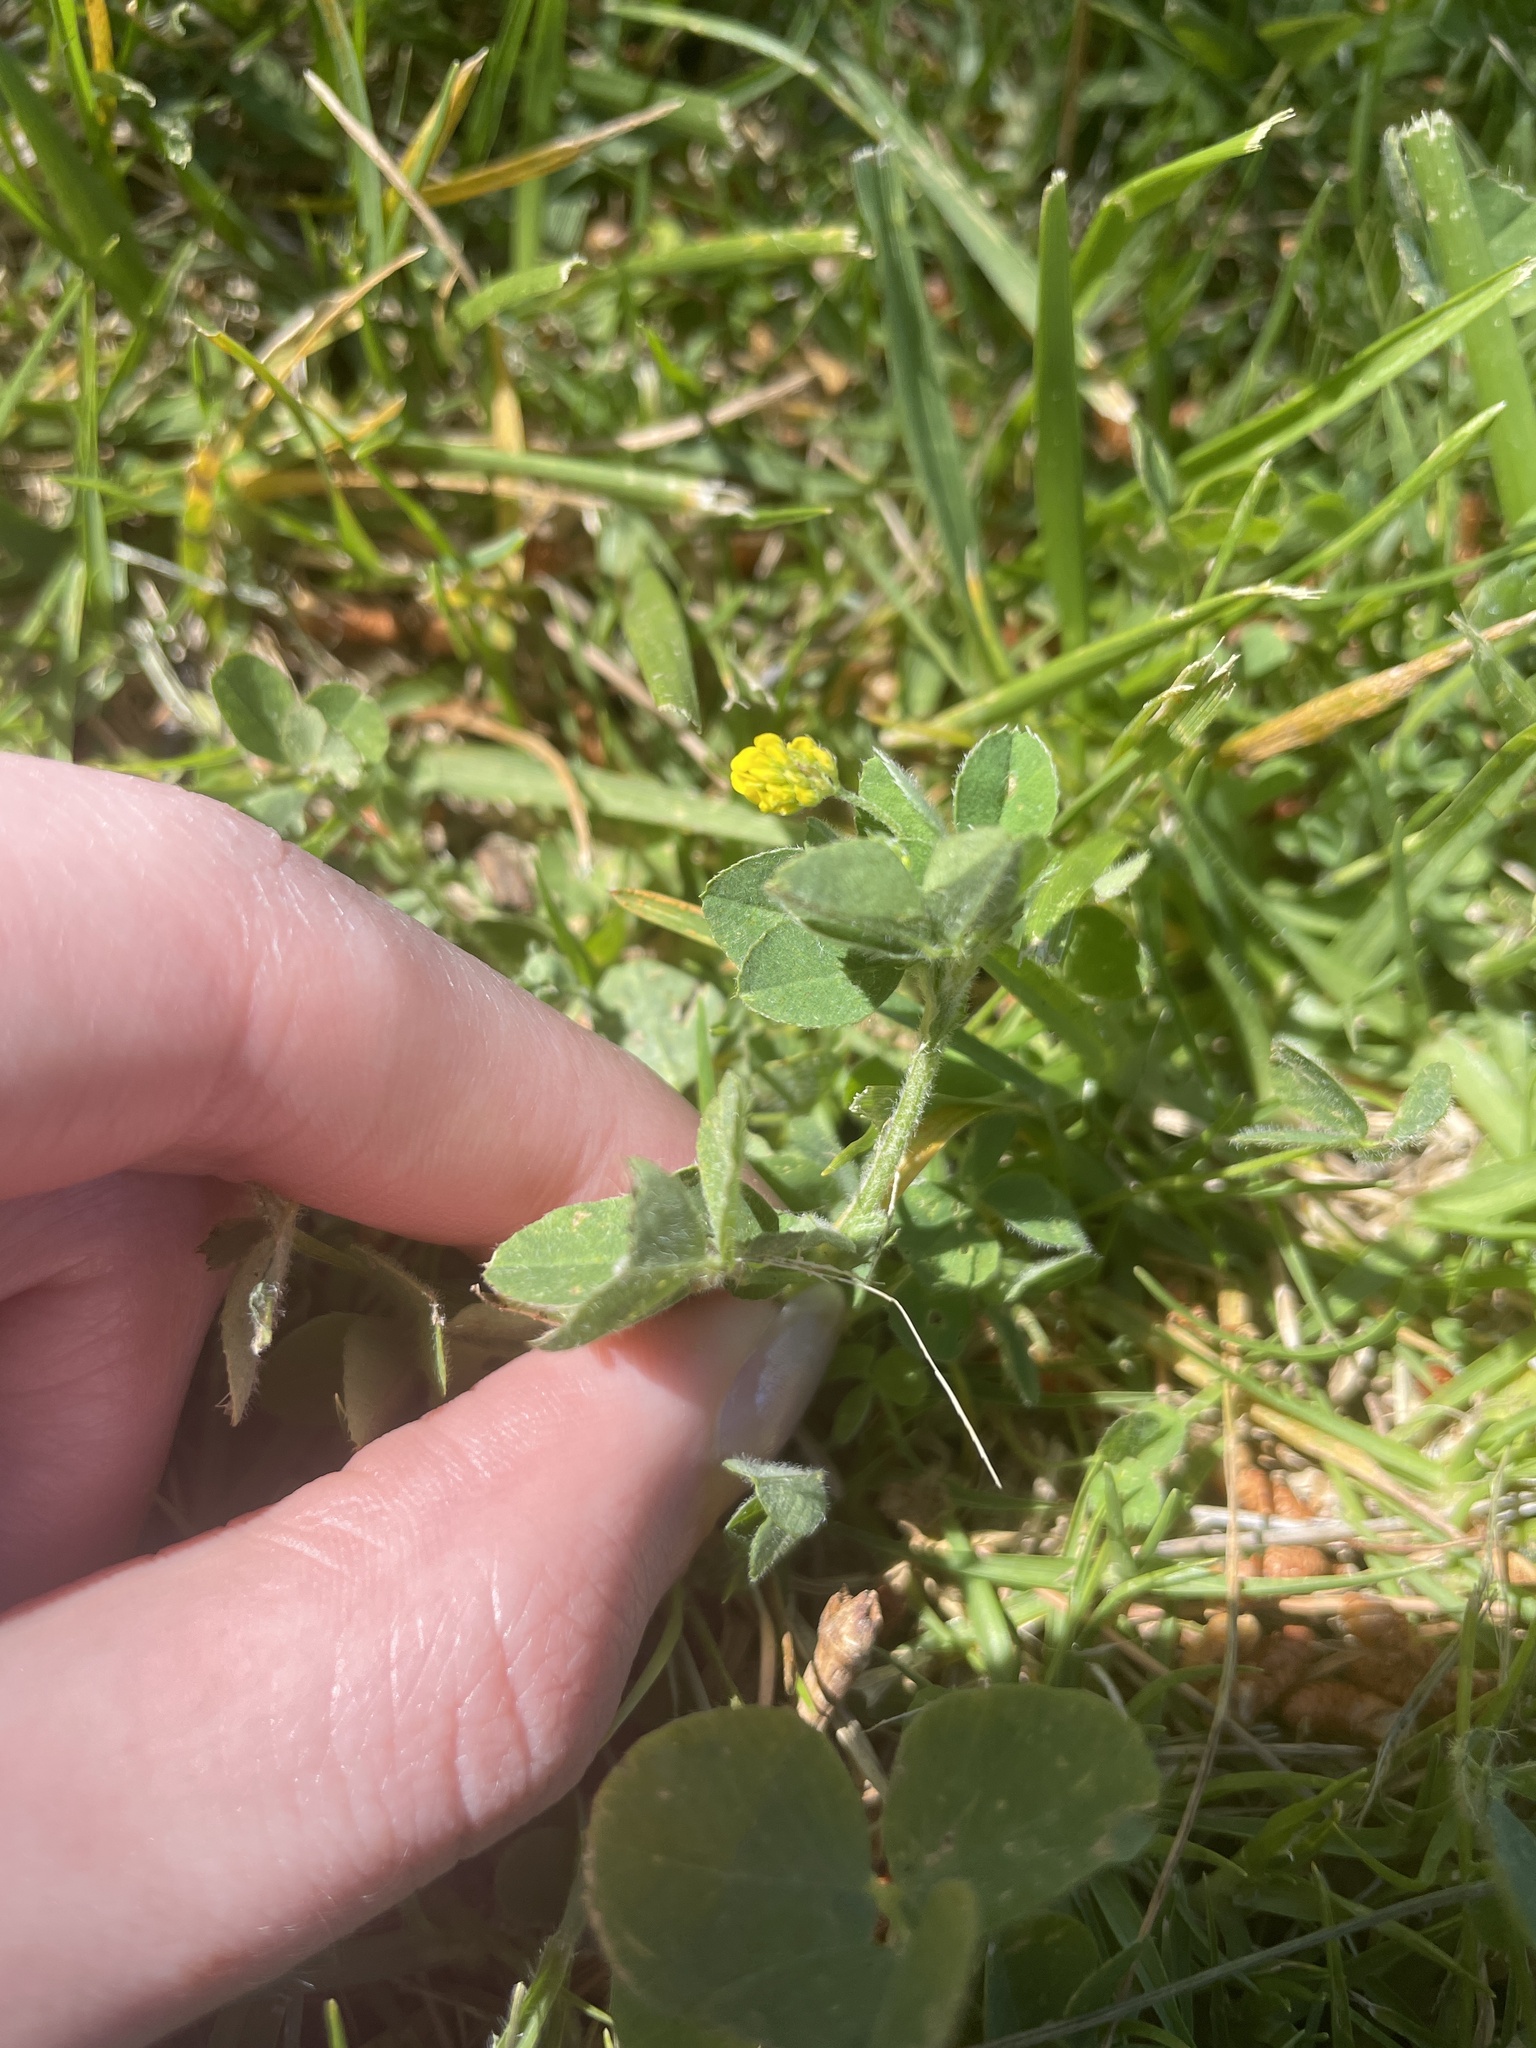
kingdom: Plantae
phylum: Tracheophyta
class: Magnoliopsida
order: Fabales
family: Fabaceae
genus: Medicago
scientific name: Medicago lupulina
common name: Black medick
